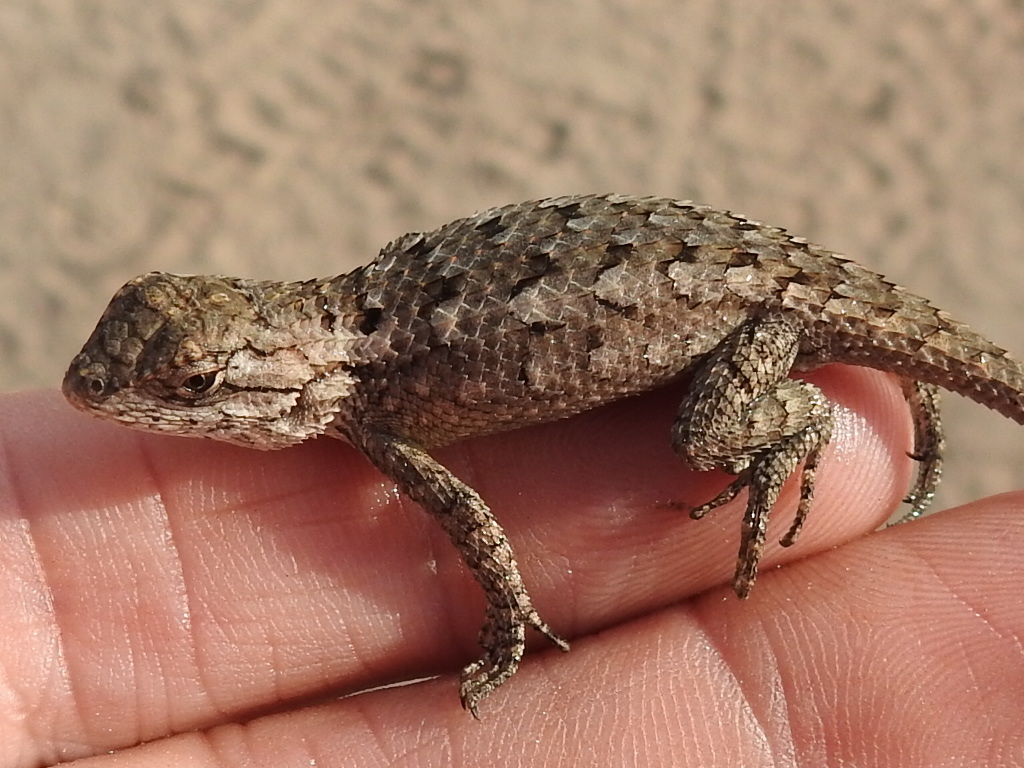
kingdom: Animalia
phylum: Chordata
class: Squamata
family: Phrynosomatidae
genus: Sceloporus
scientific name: Sceloporus olivaceus
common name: Texas spiny lizard
